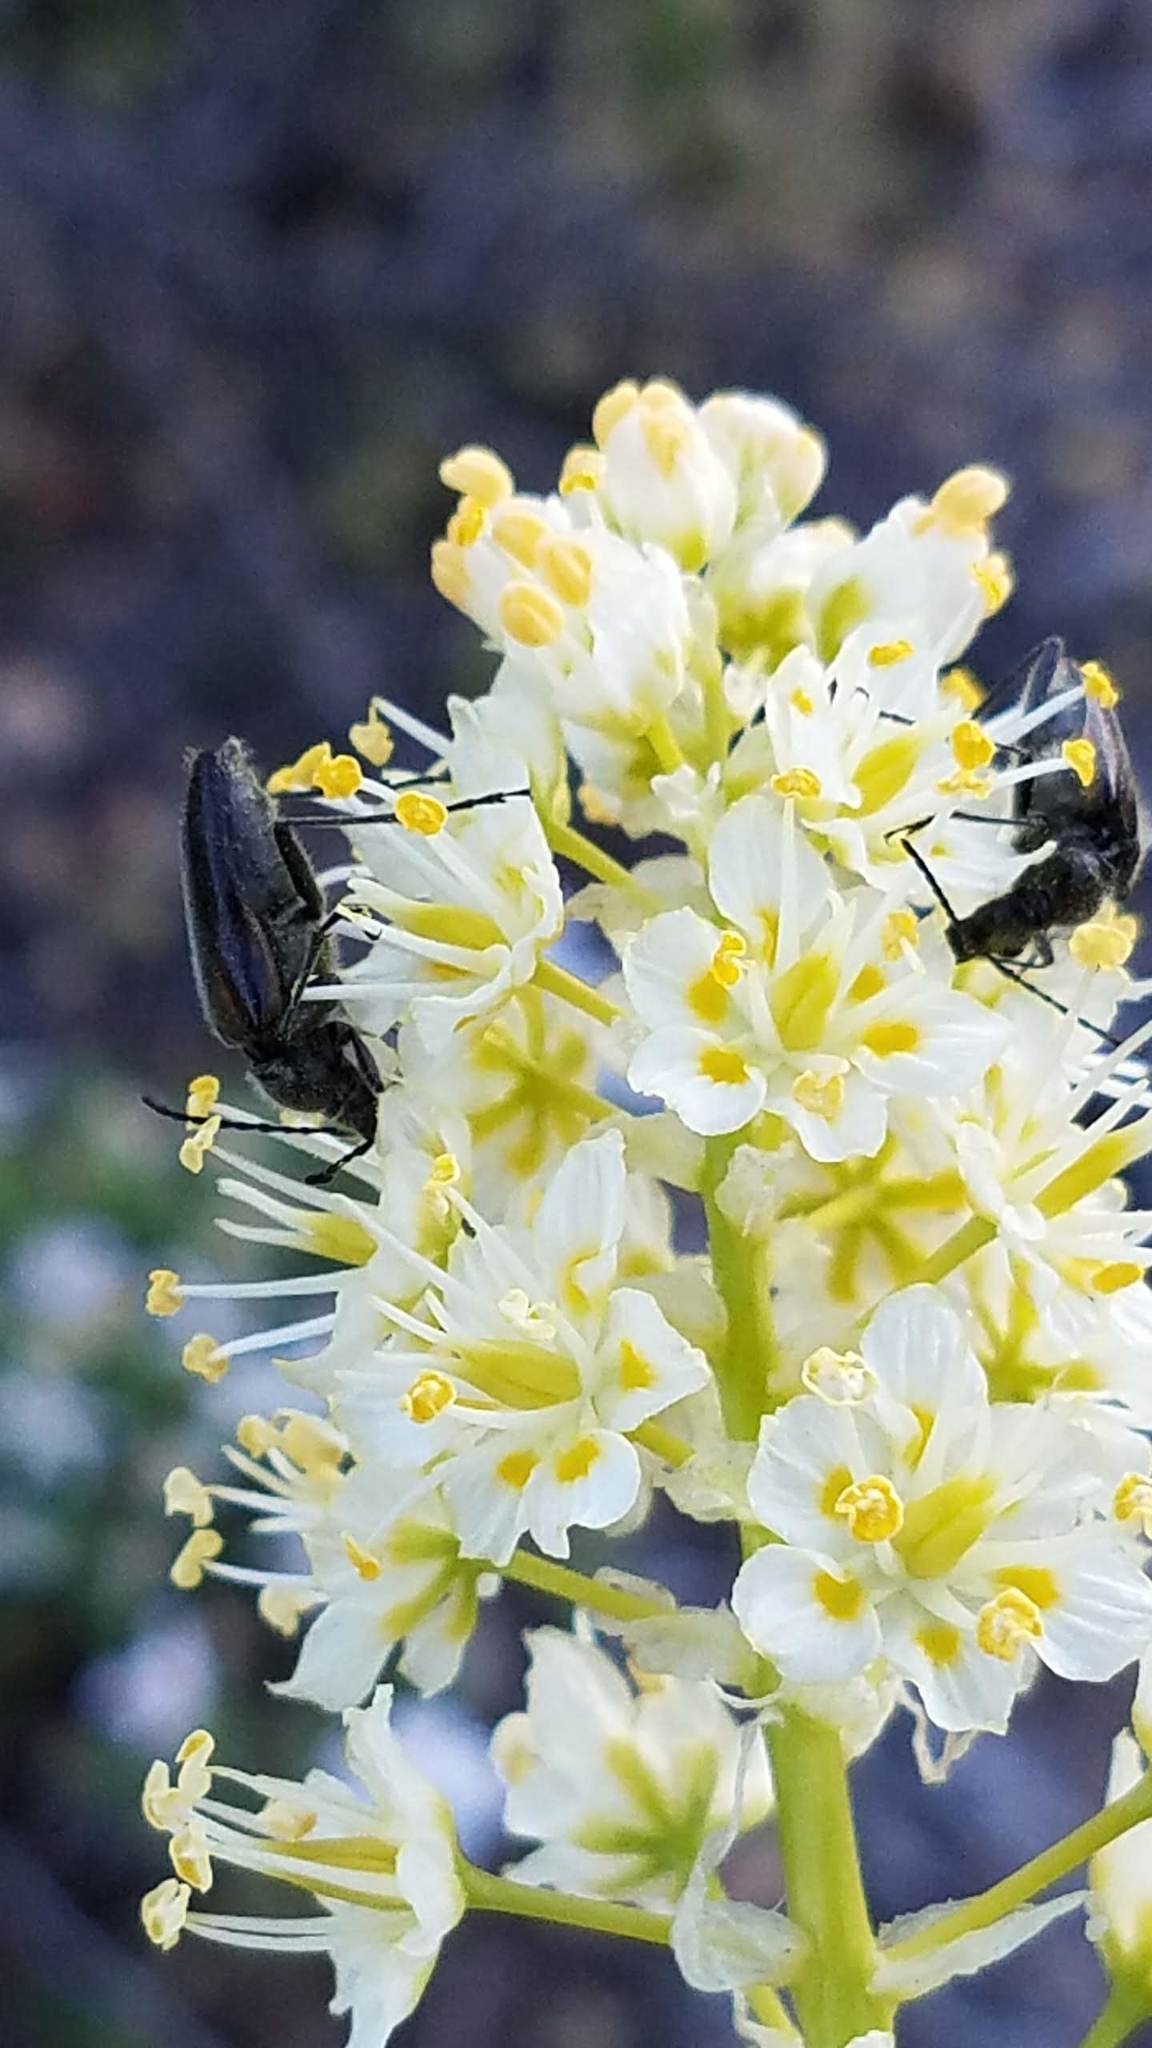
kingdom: Plantae
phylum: Tracheophyta
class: Liliopsida
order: Liliales
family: Melanthiaceae
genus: Toxicoscordion
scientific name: Toxicoscordion venenosum
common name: Meadow death camas
